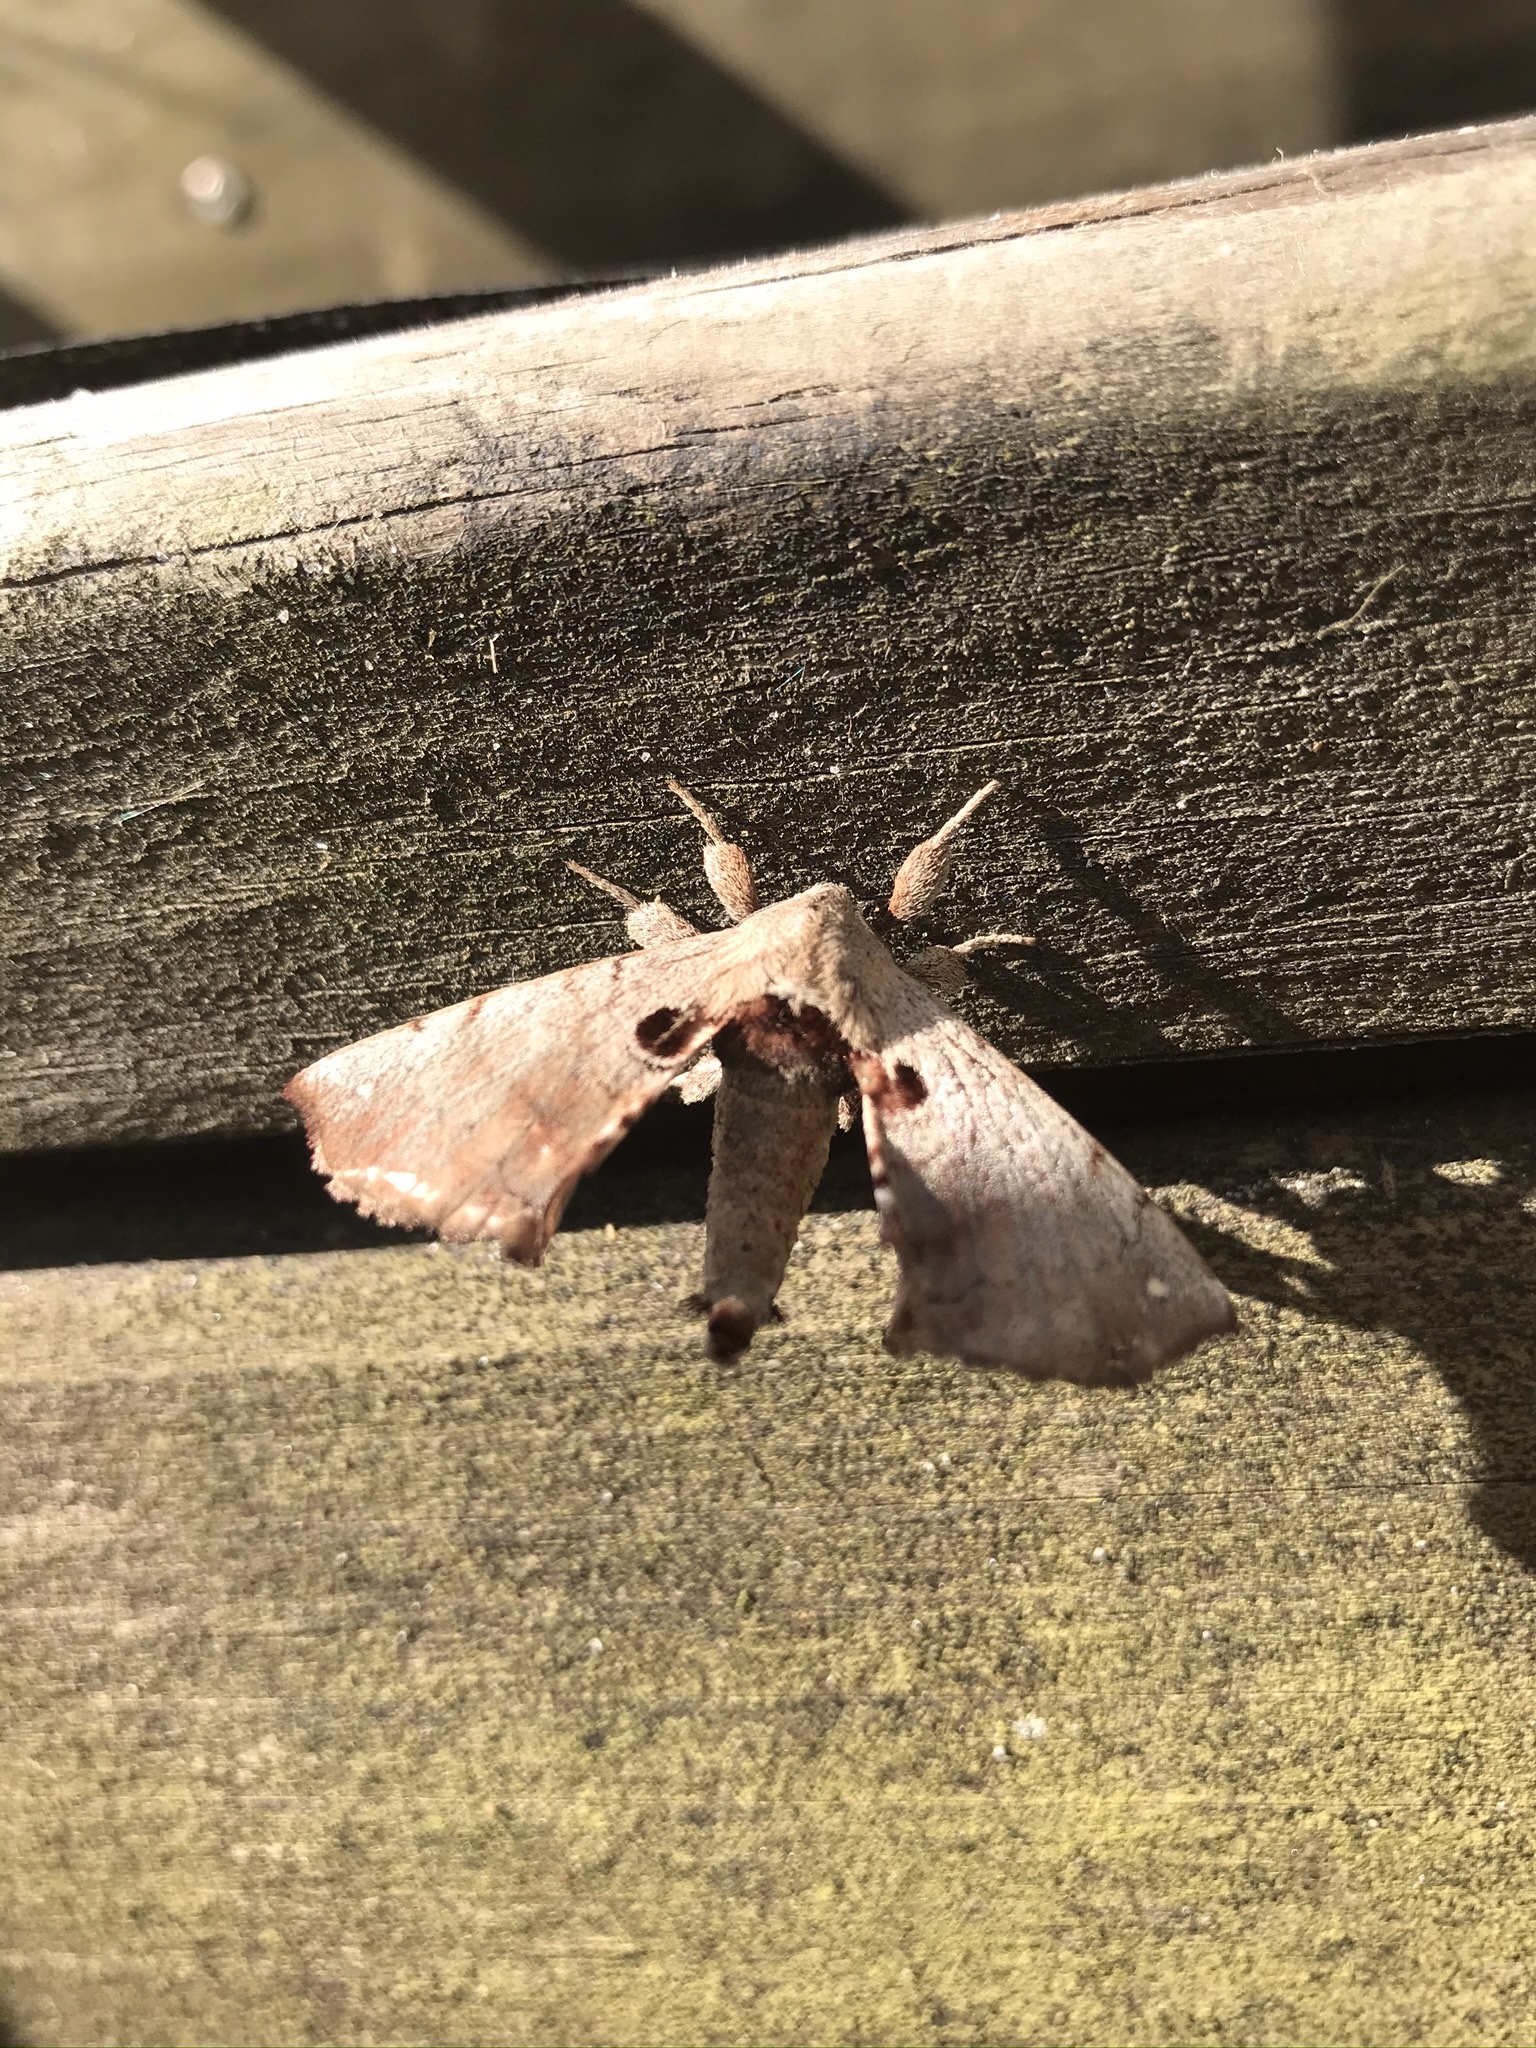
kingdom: Animalia
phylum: Arthropoda
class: Insecta
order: Lepidoptera
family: Apatelodidae
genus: Hygrochroa
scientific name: Hygrochroa Apatelodes torrefacta
